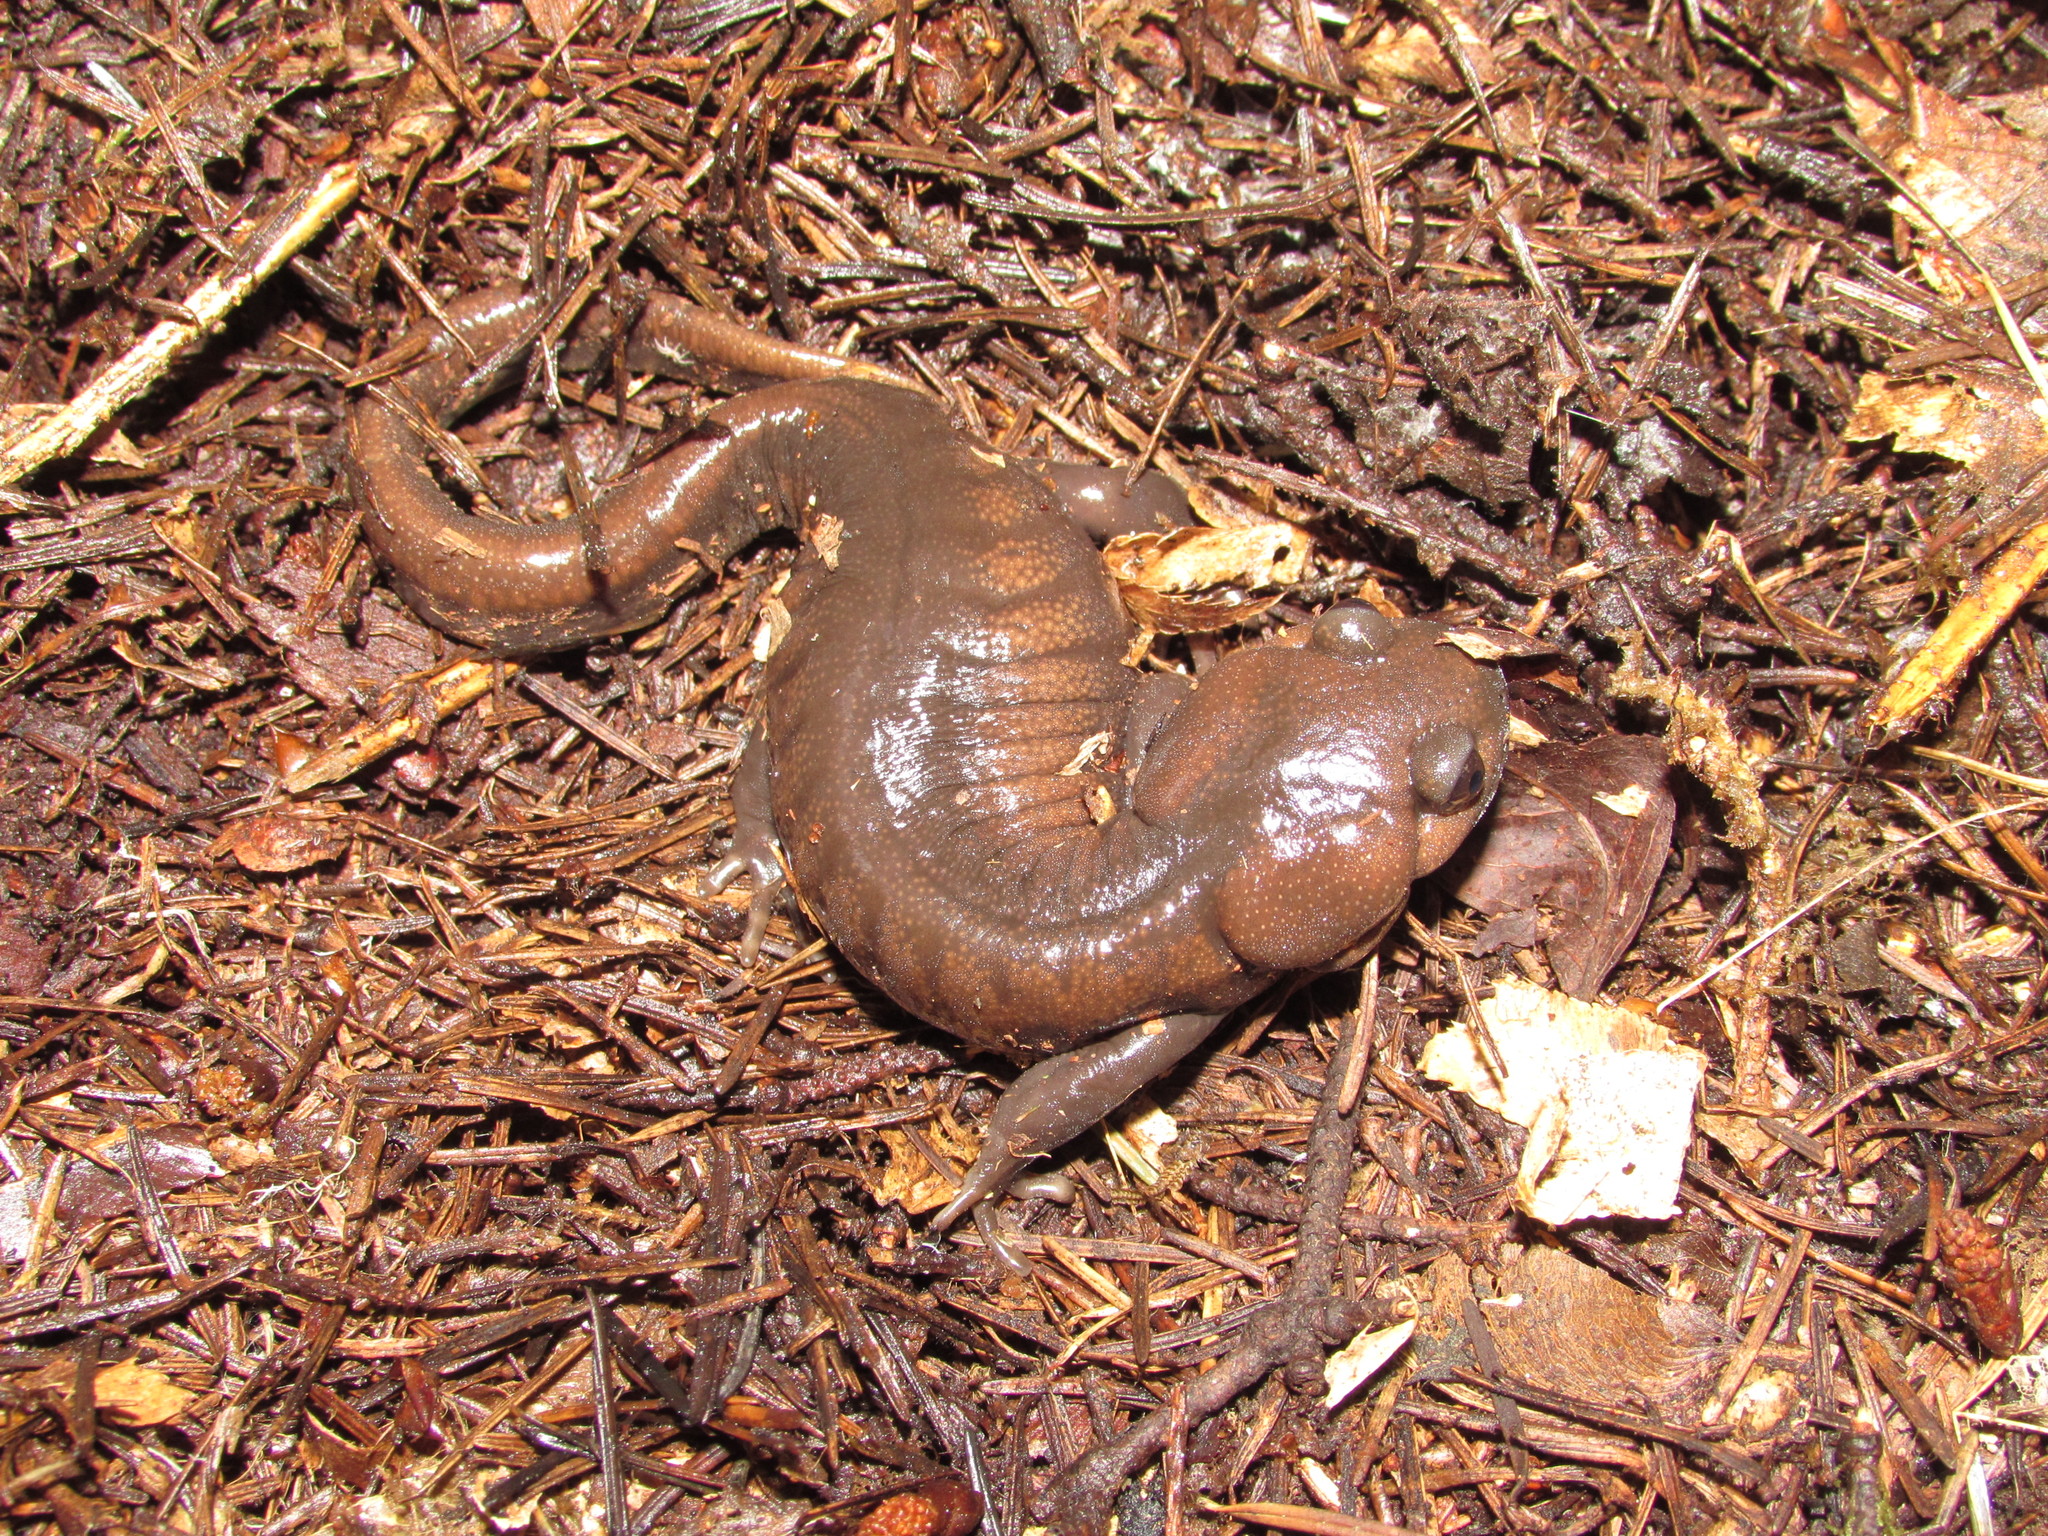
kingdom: Animalia
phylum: Chordata
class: Amphibia
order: Caudata
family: Ambystomatidae
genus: Ambystoma
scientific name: Ambystoma gracile
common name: Northwestern salamander
